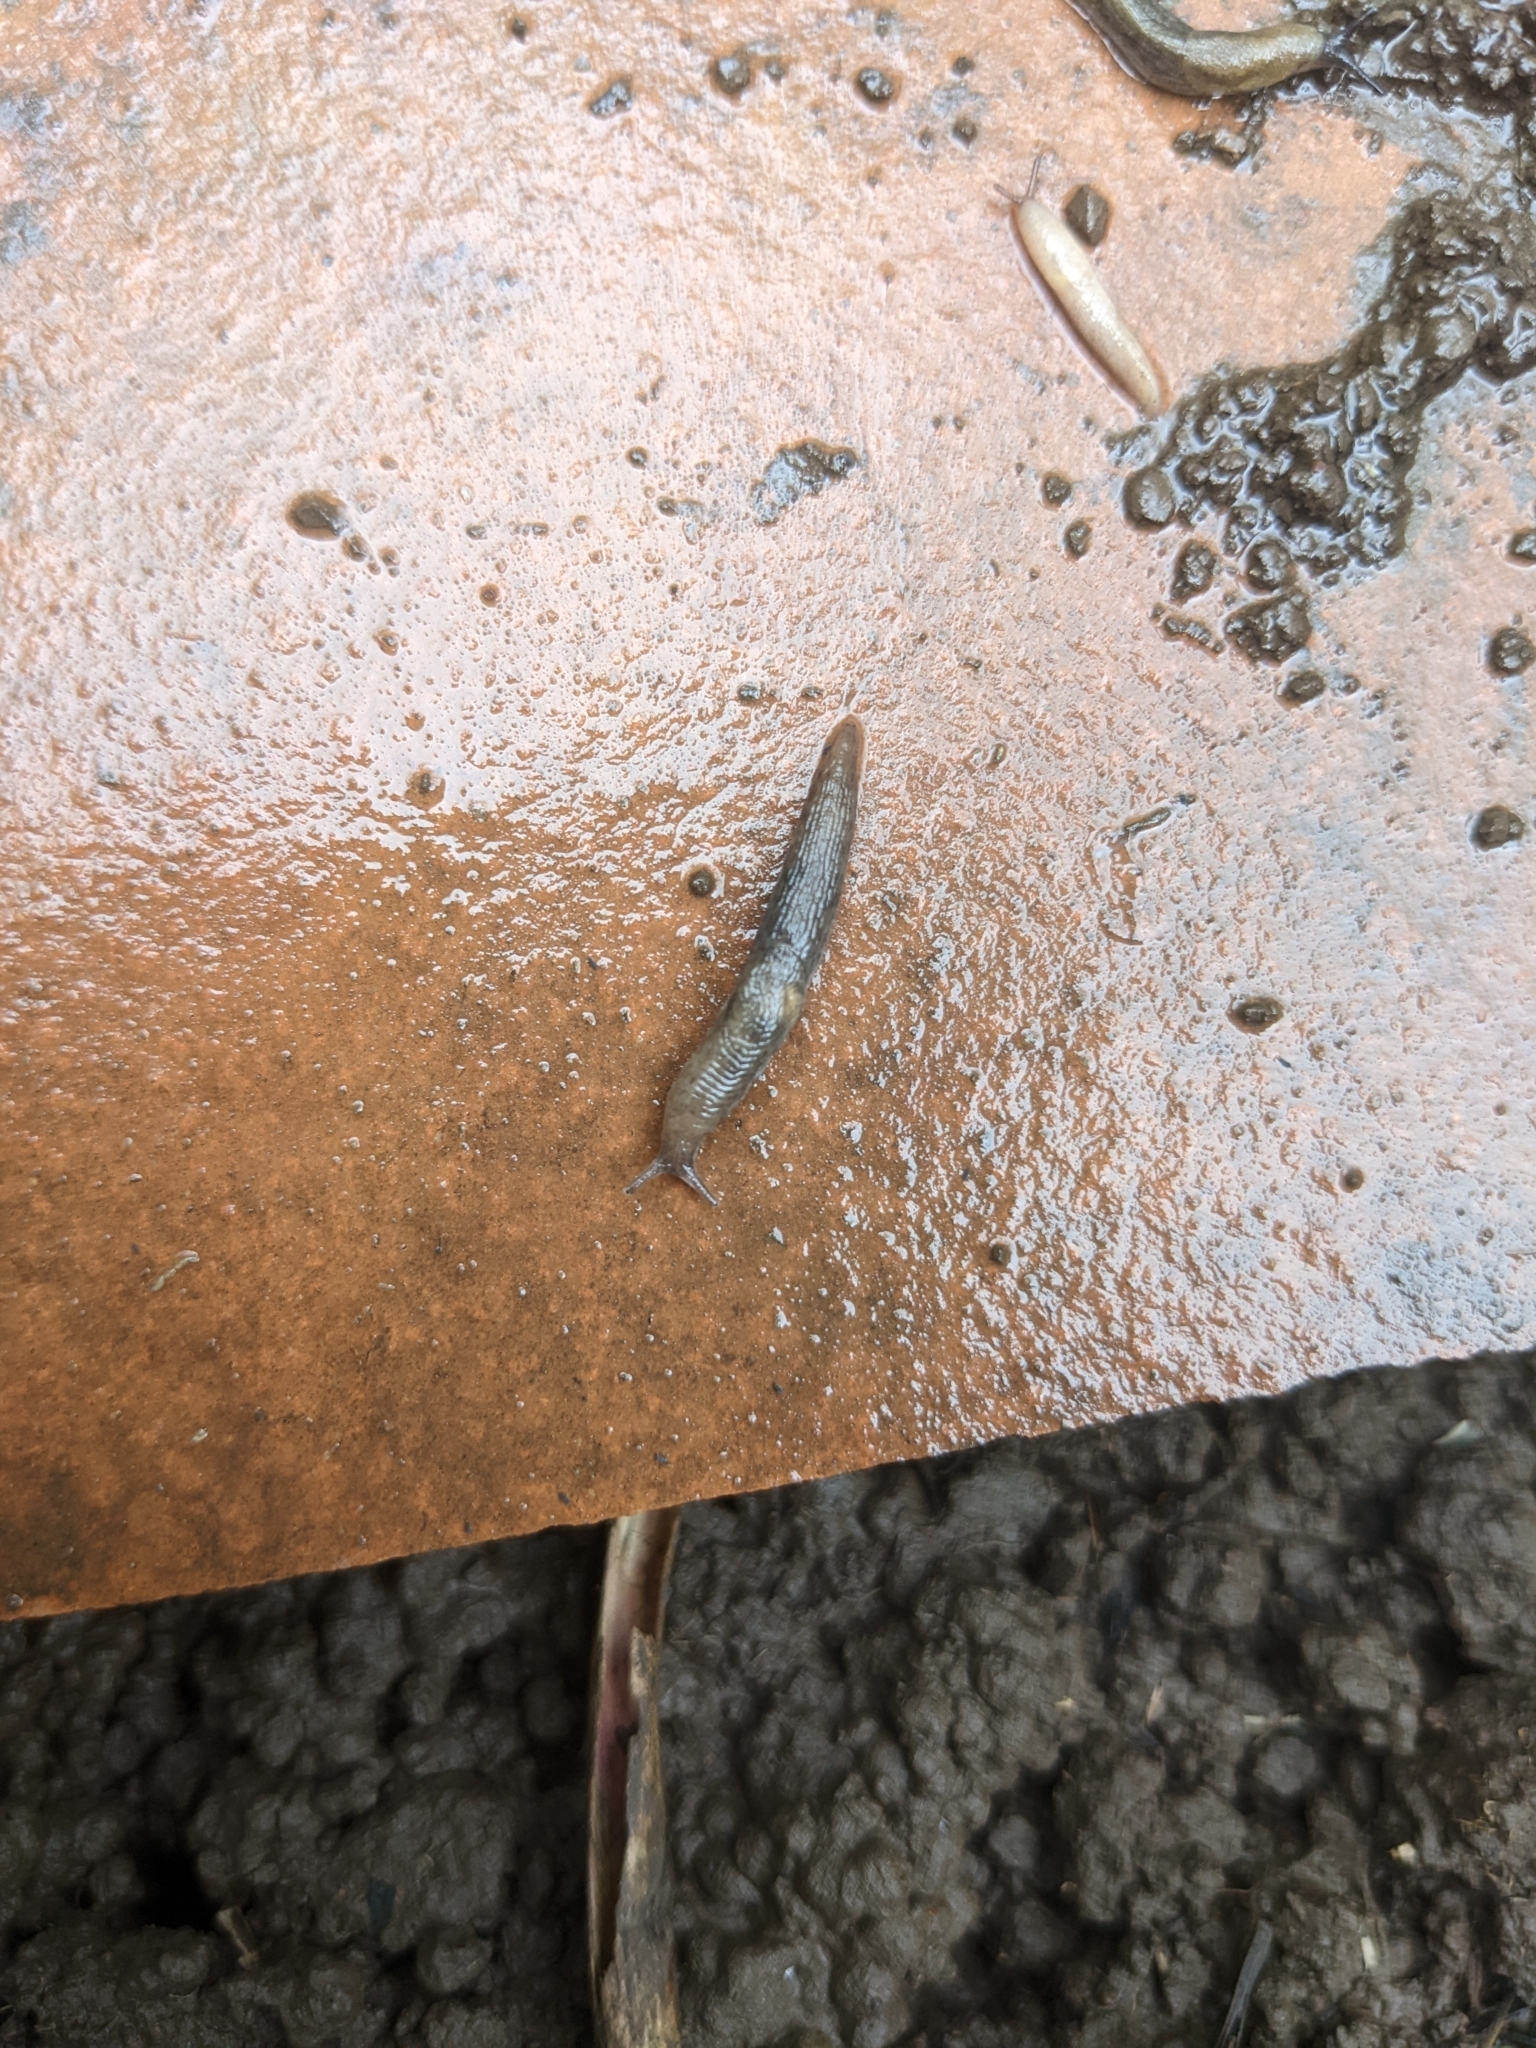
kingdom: Animalia
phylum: Mollusca
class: Gastropoda
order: Stylommatophora
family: Agriolimacidae
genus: Deroceras
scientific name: Deroceras invadens
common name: Caruana's slug
